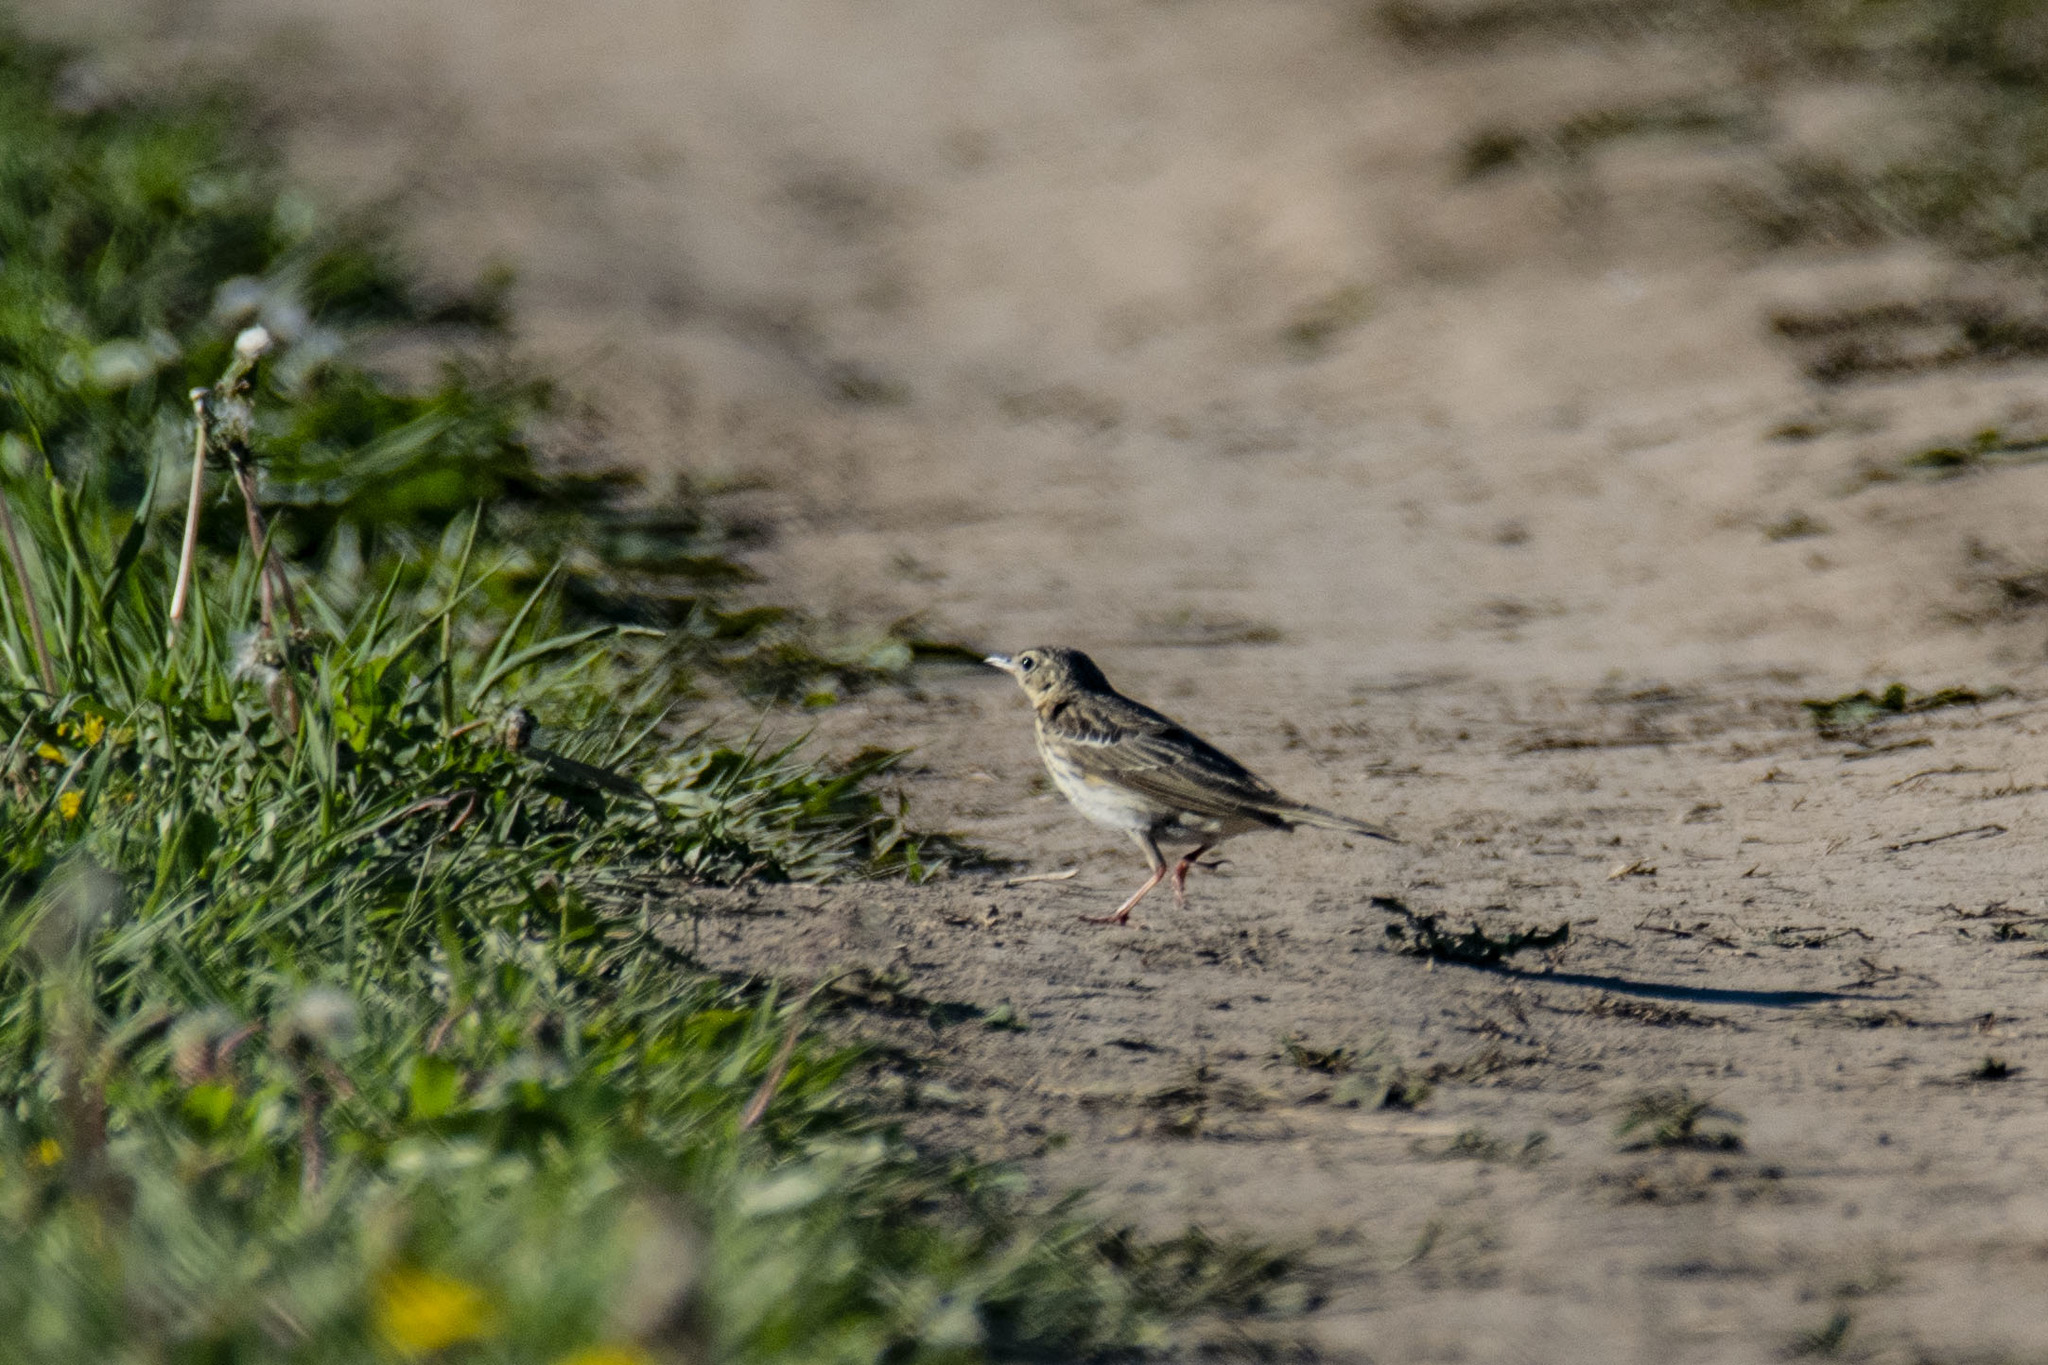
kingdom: Animalia
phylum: Chordata
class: Aves
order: Passeriformes
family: Motacillidae
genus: Anthus
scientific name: Anthus trivialis
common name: Tree pipit
